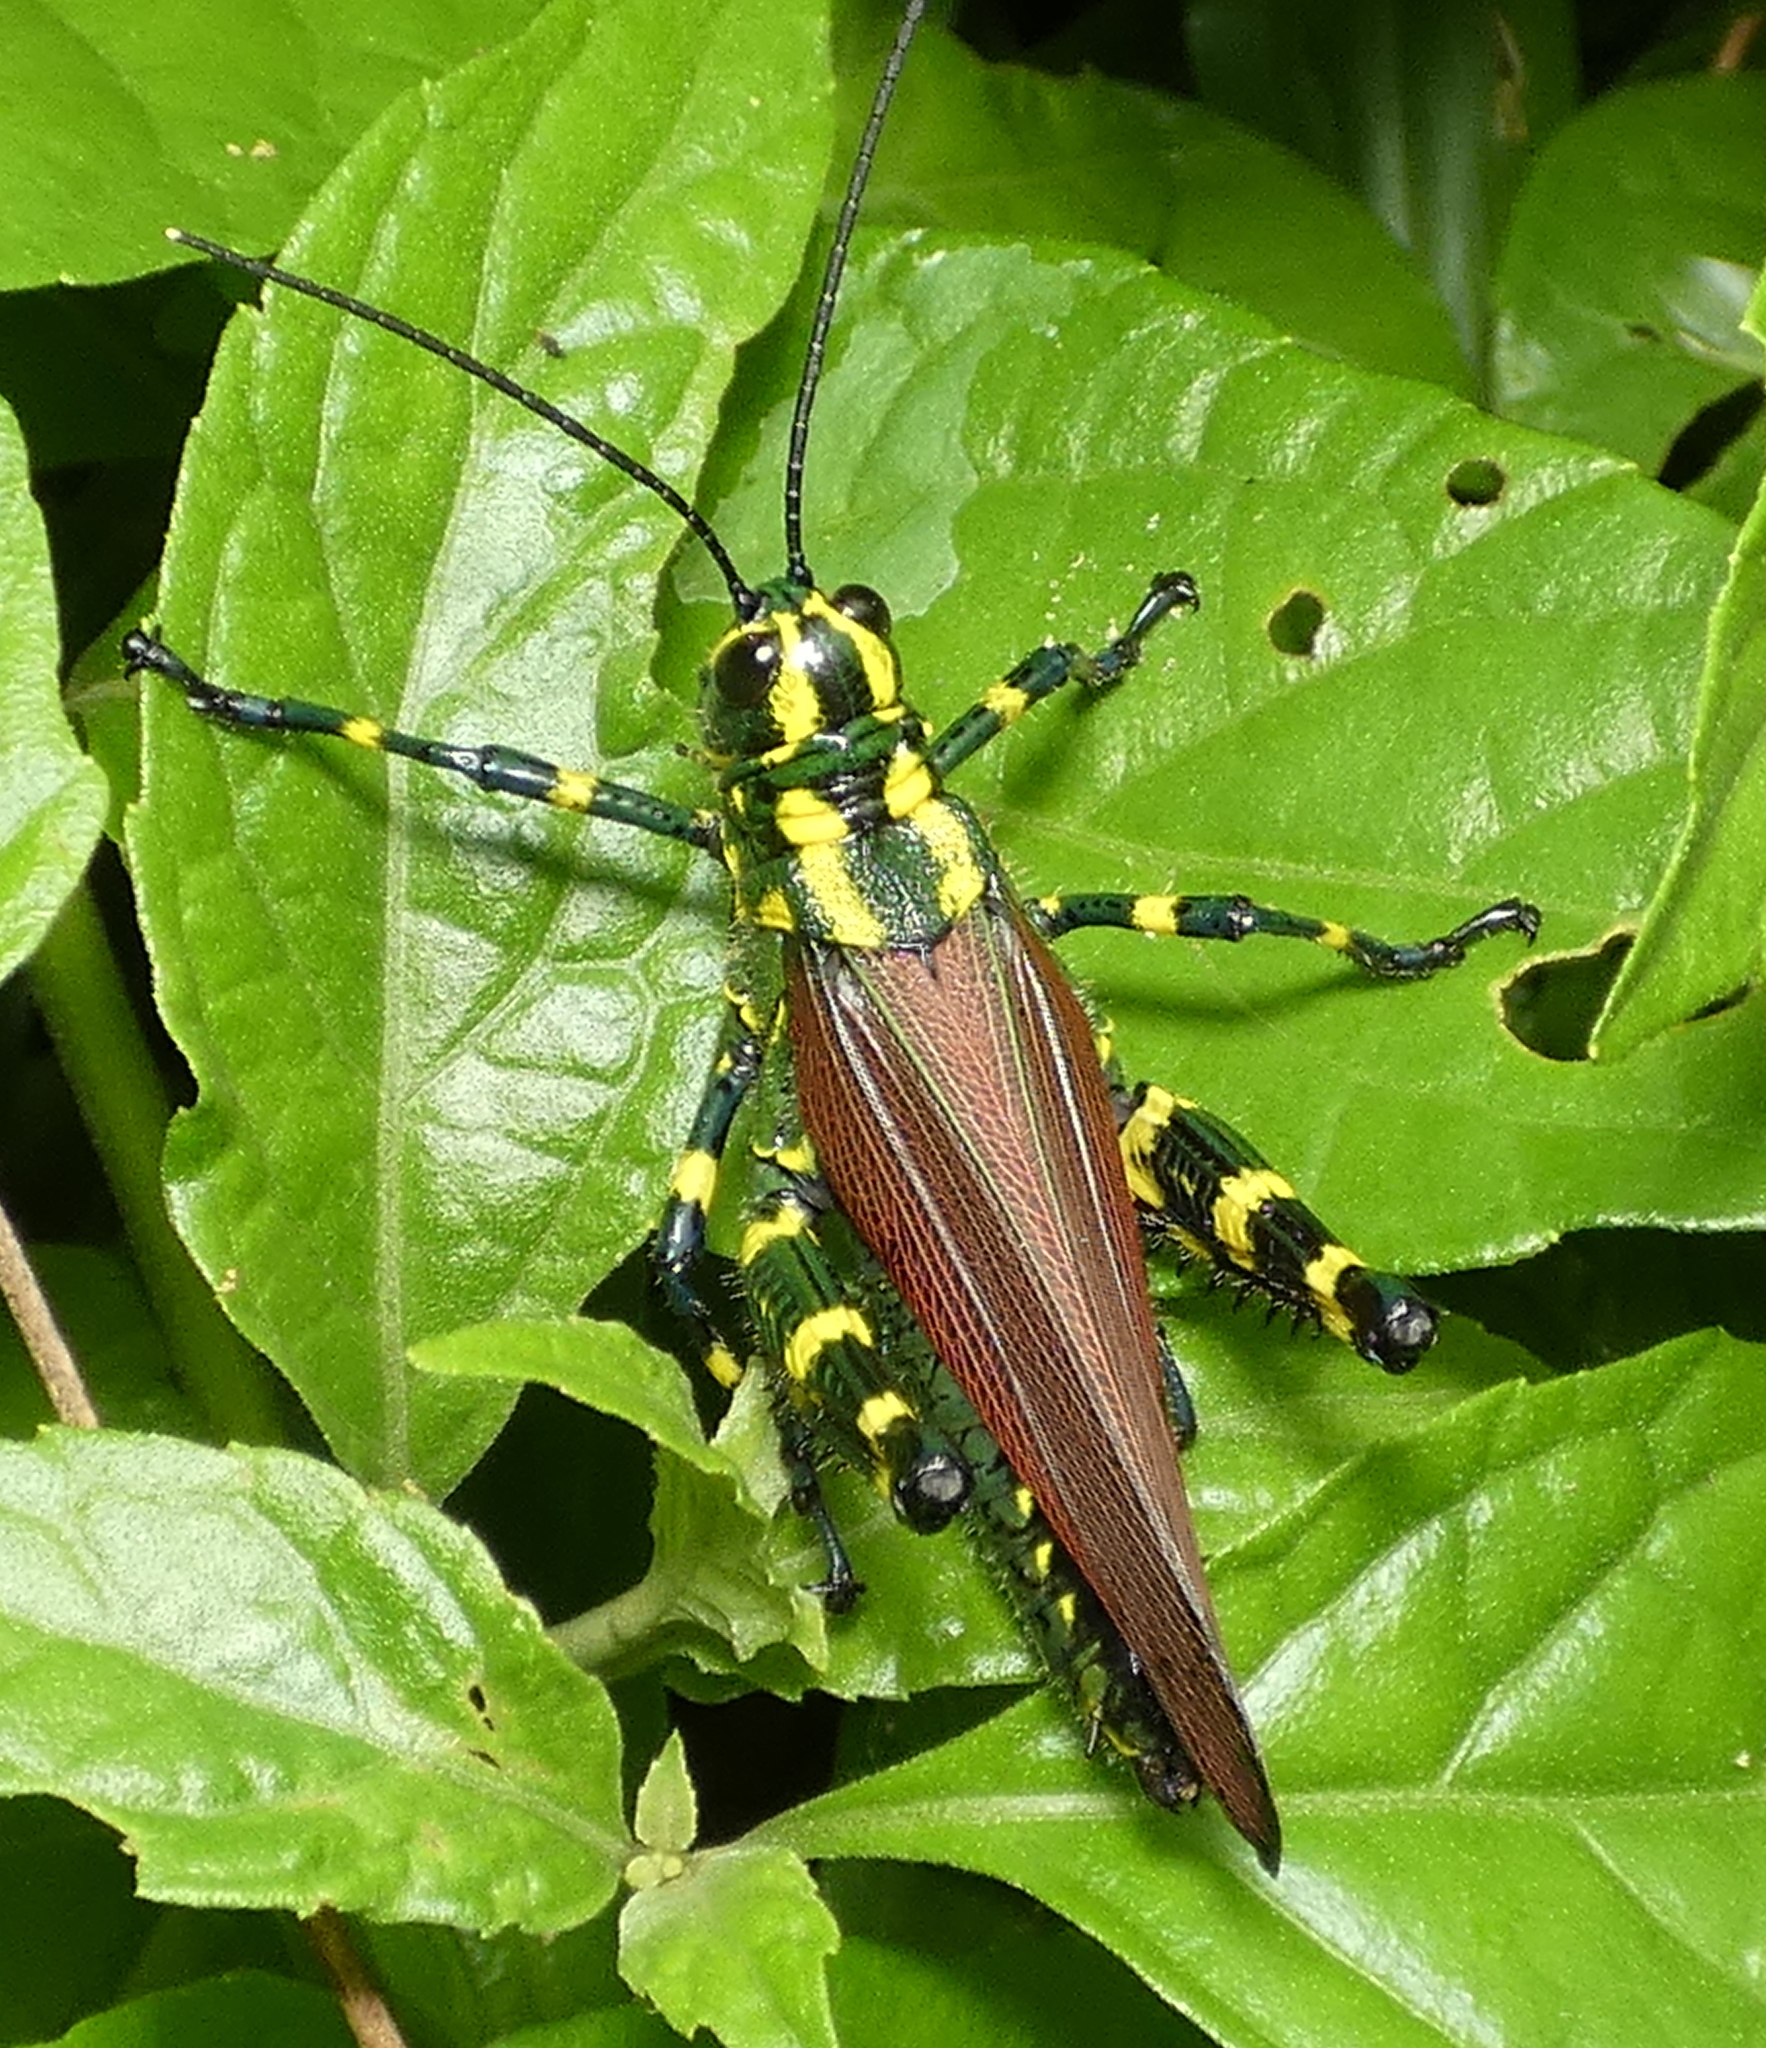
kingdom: Animalia
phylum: Arthropoda
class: Insecta
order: Orthoptera
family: Romaleidae
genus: Chromacris
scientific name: Chromacris speciosa
